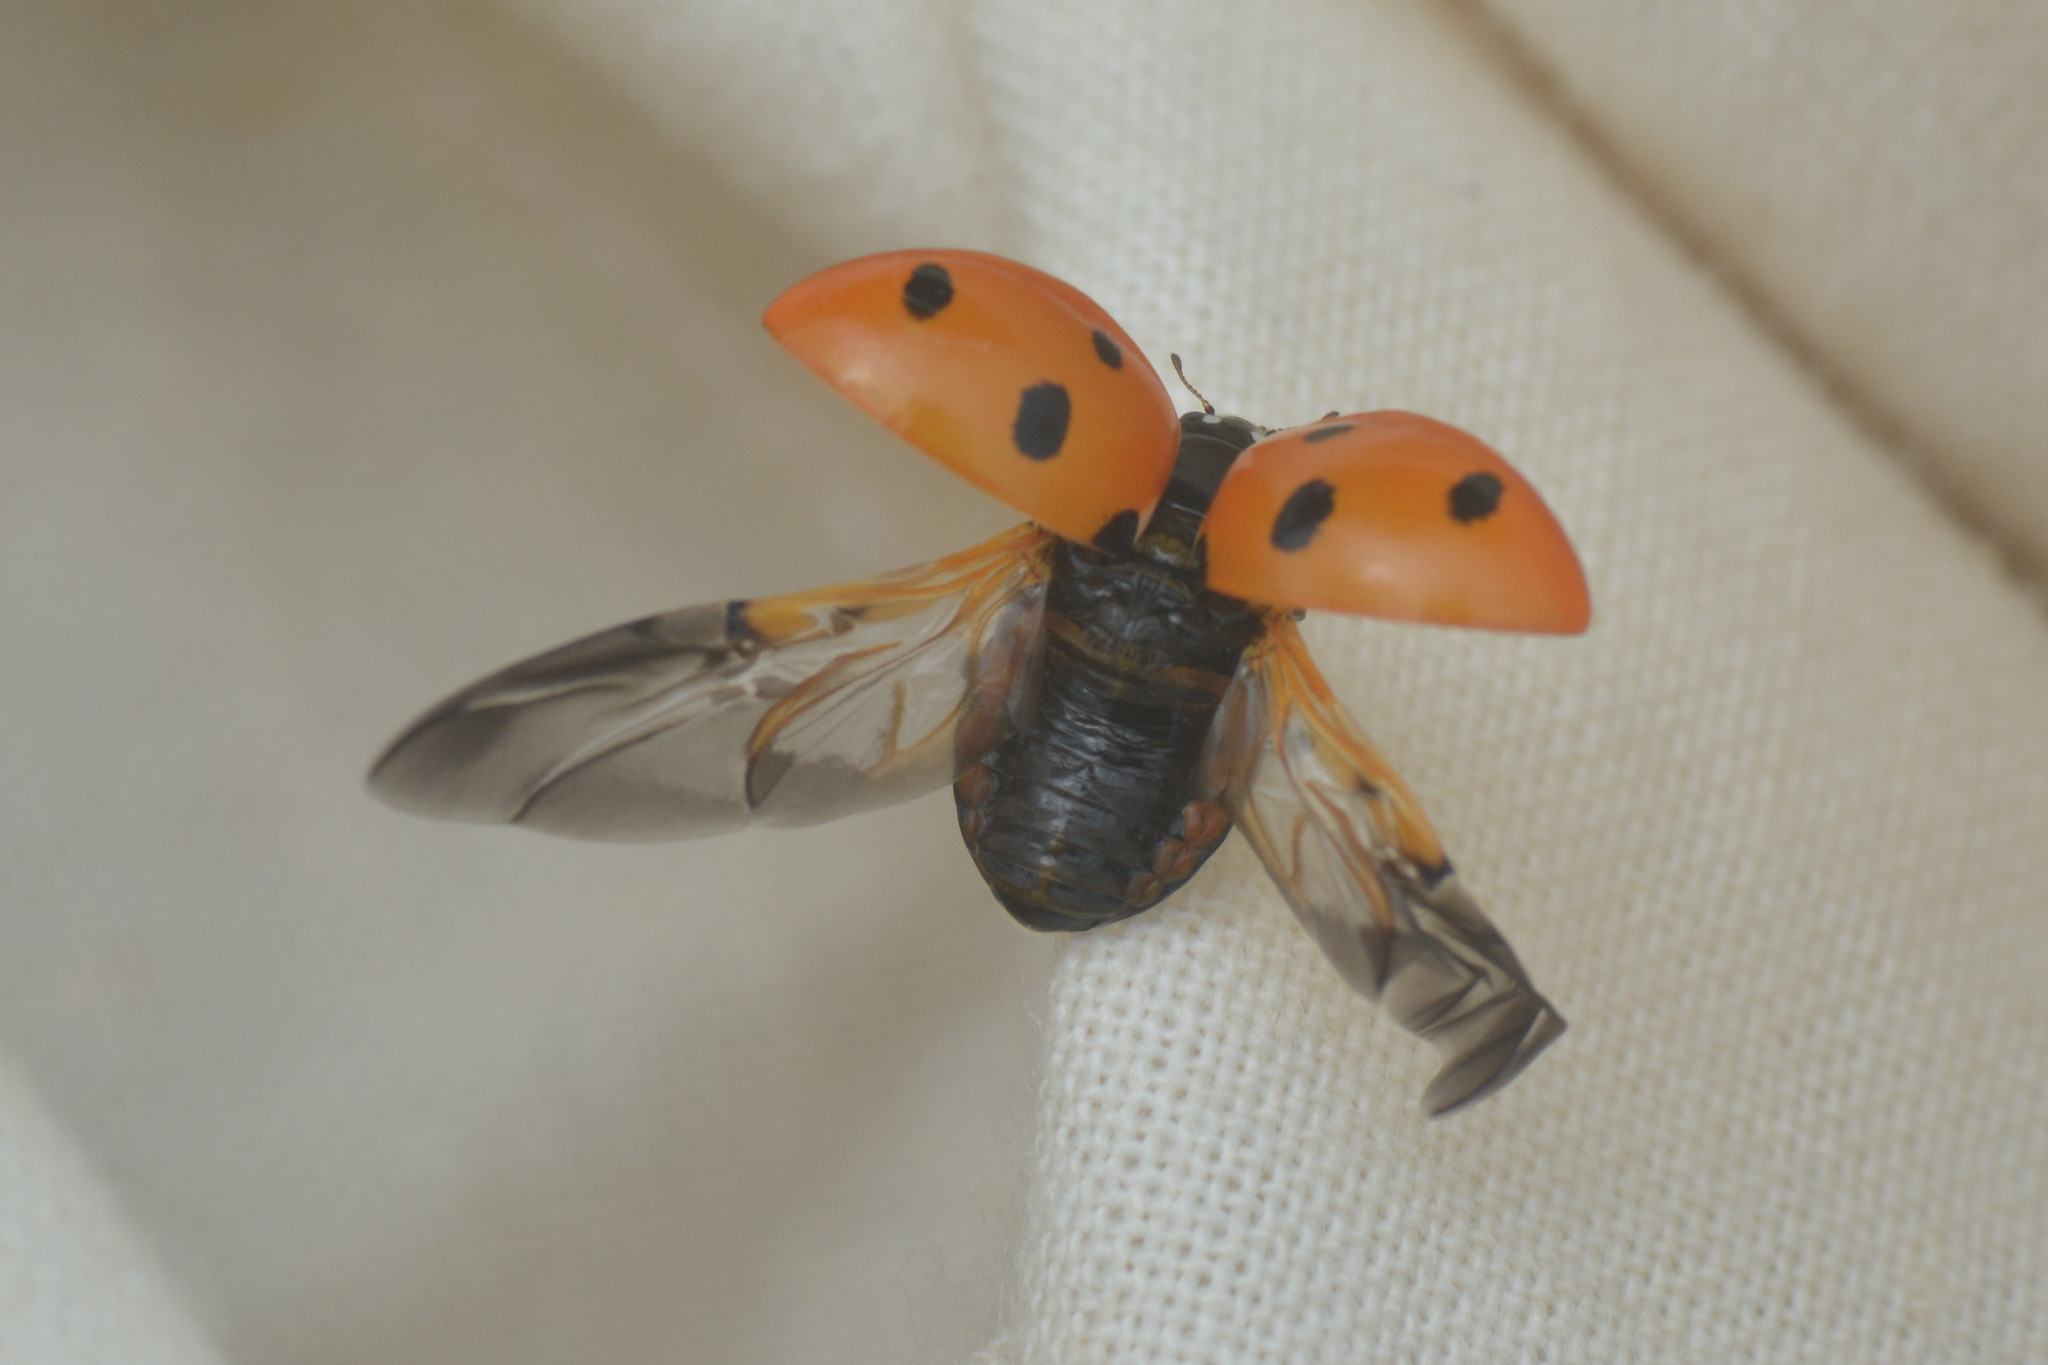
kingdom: Animalia
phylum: Arthropoda
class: Insecta
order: Coleoptera
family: Coccinellidae
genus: Coccinella
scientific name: Coccinella septempunctata
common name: Sevenspotted lady beetle
